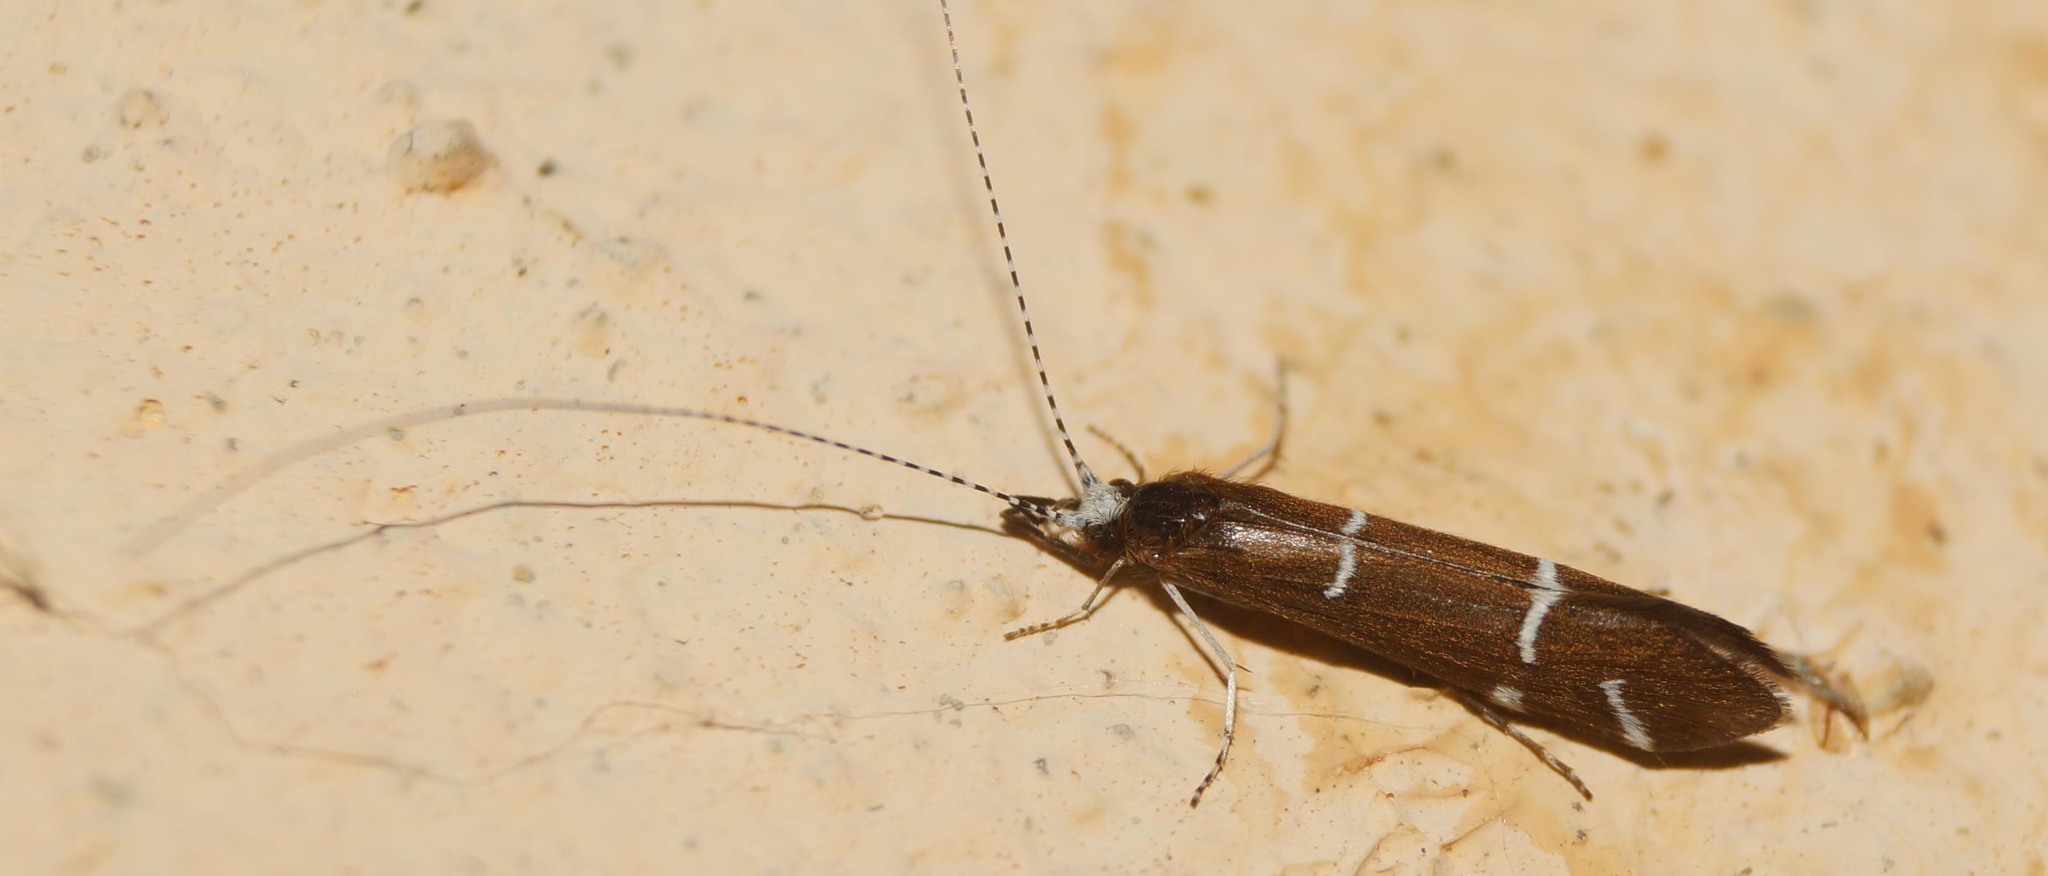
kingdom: Animalia
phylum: Arthropoda
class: Insecta
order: Trichoptera
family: Leptoceridae
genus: Athripsodes
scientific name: Athripsodes albifrons
